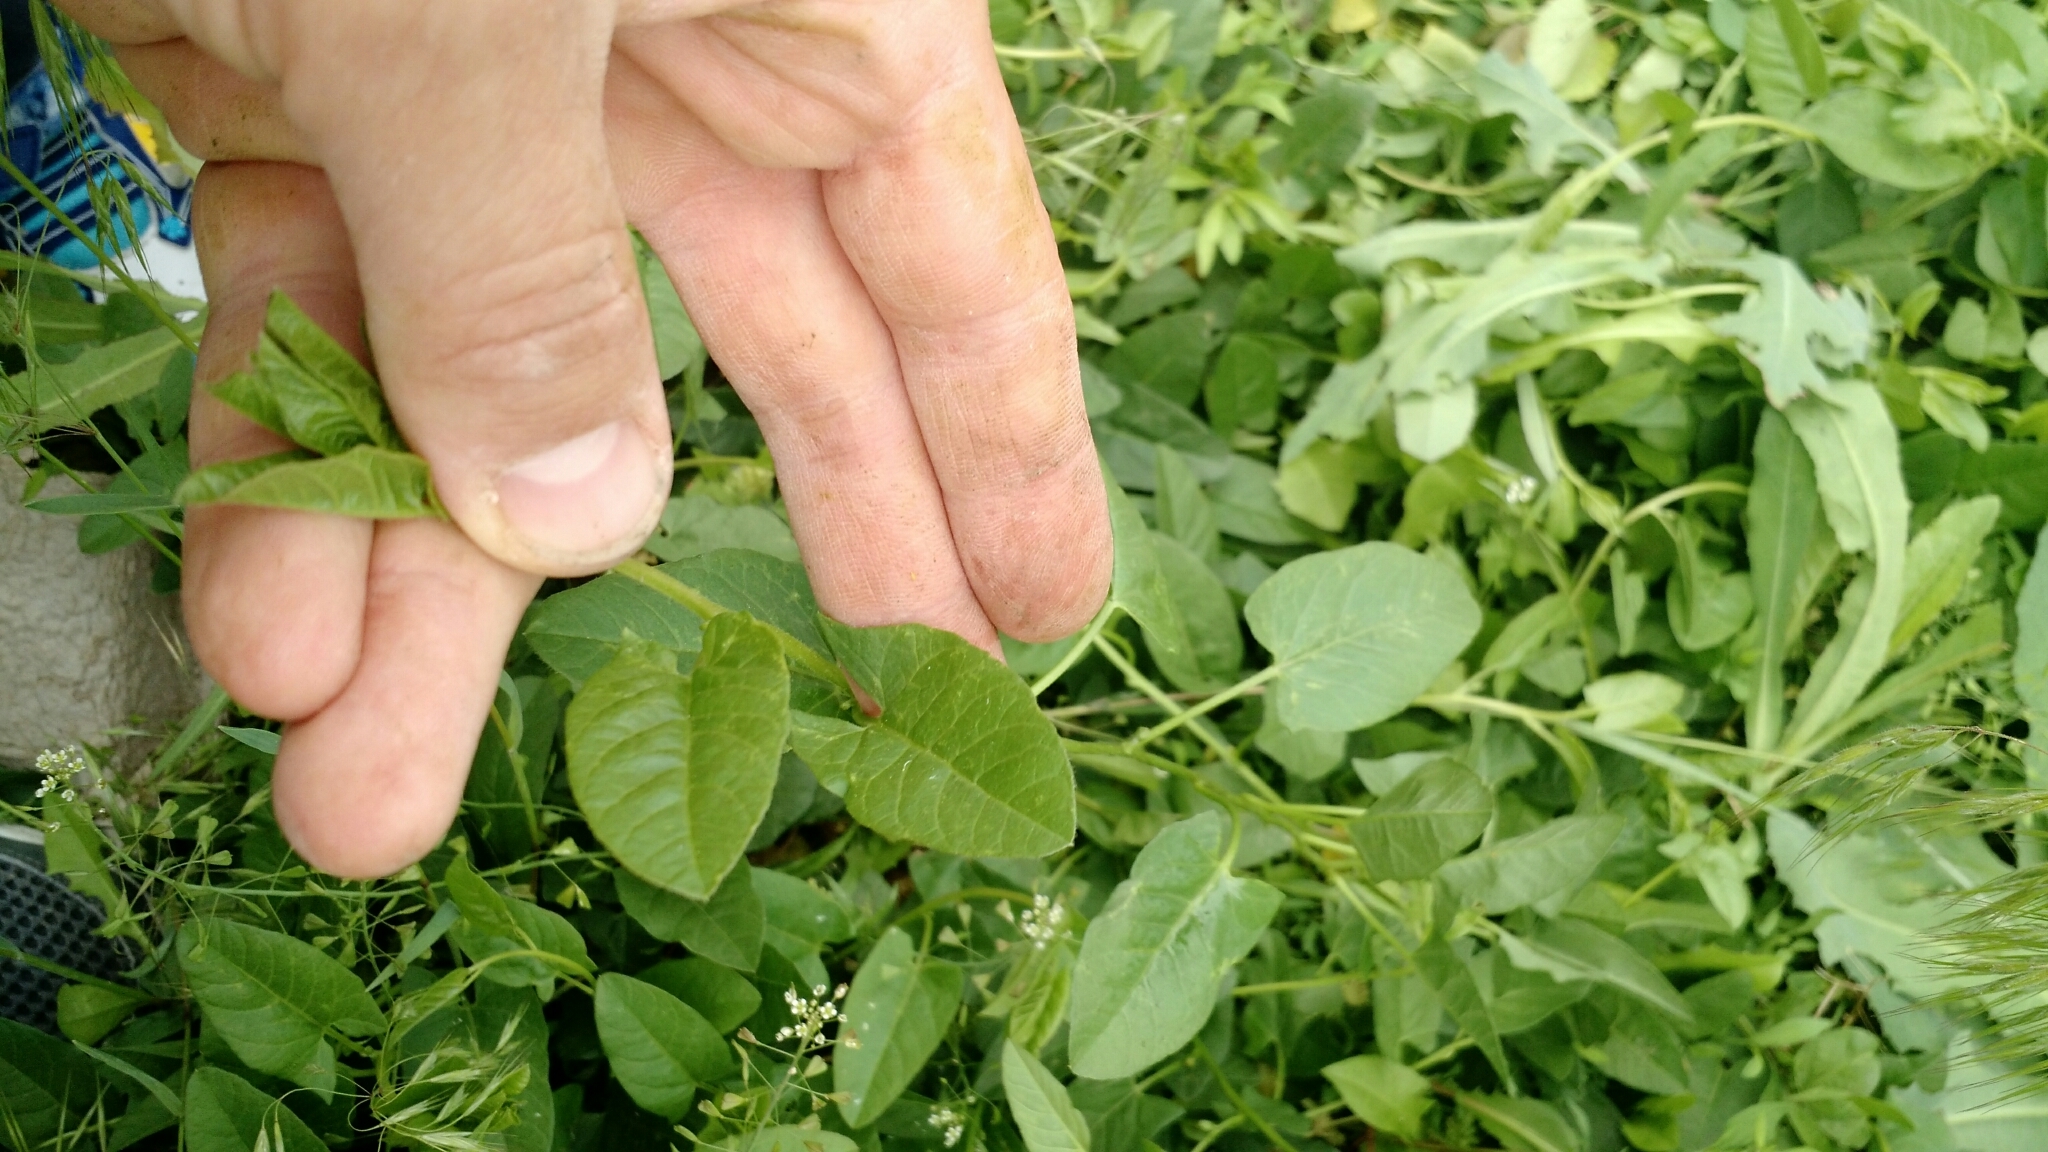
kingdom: Plantae
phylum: Tracheophyta
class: Magnoliopsida
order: Solanales
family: Convolvulaceae
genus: Convolvulus
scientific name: Convolvulus arvensis
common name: Field bindweed
